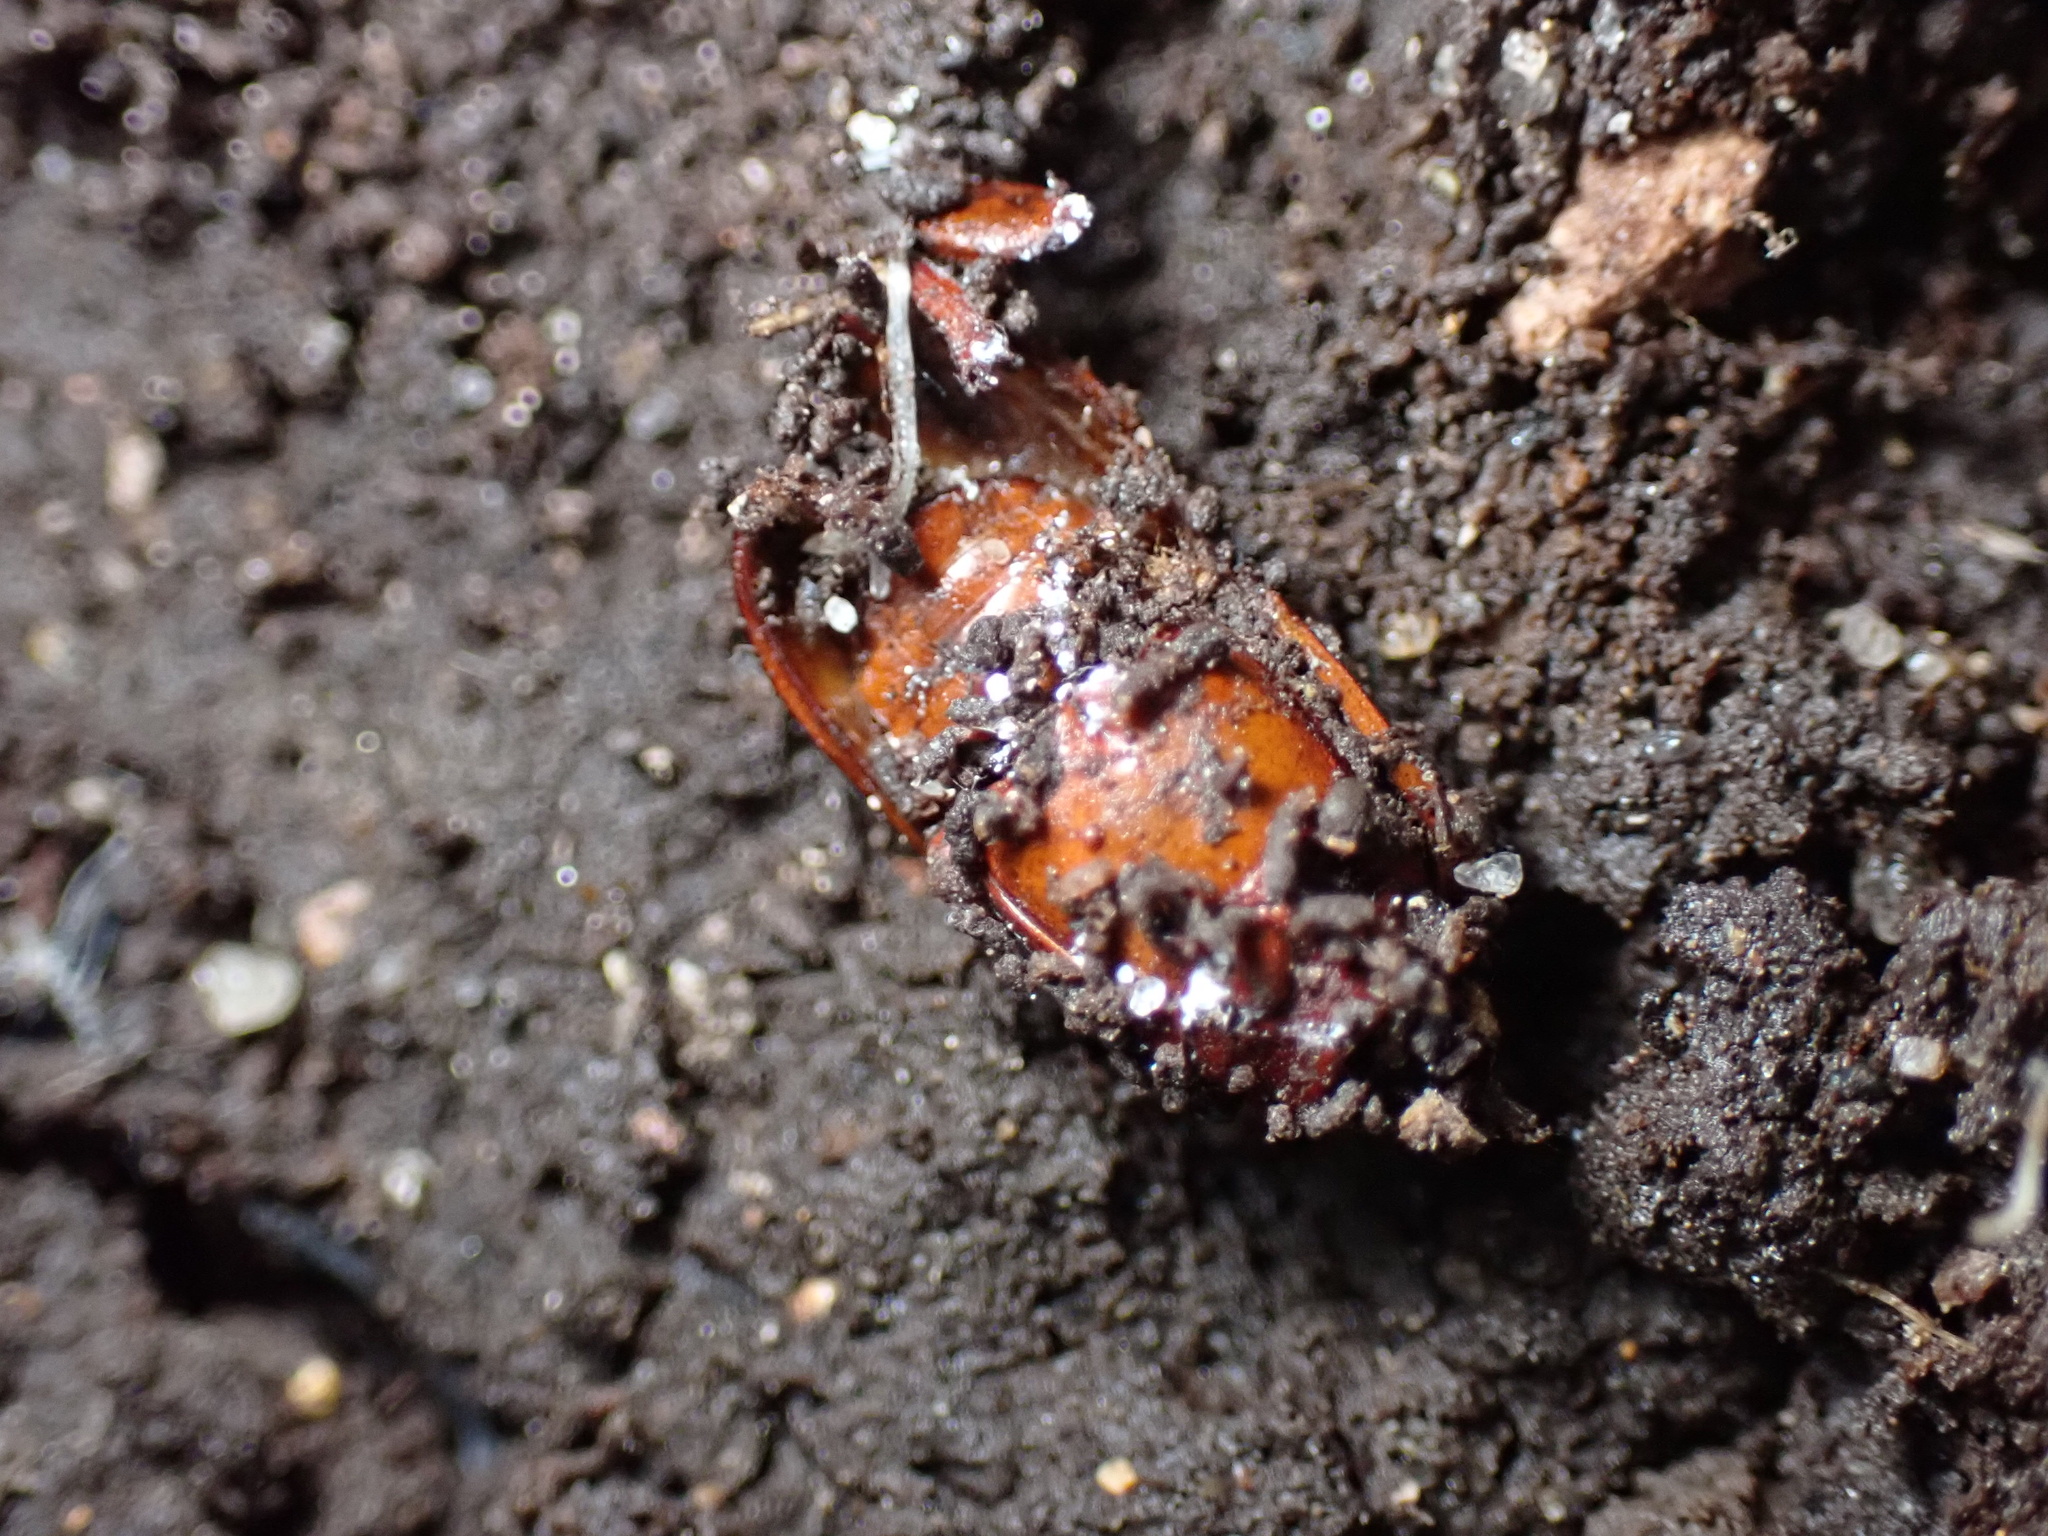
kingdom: Animalia
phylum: Arthropoda
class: Insecta
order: Coleoptera
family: Cerambycidae
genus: Neandra
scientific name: Neandra brunnea
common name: Pole borer
